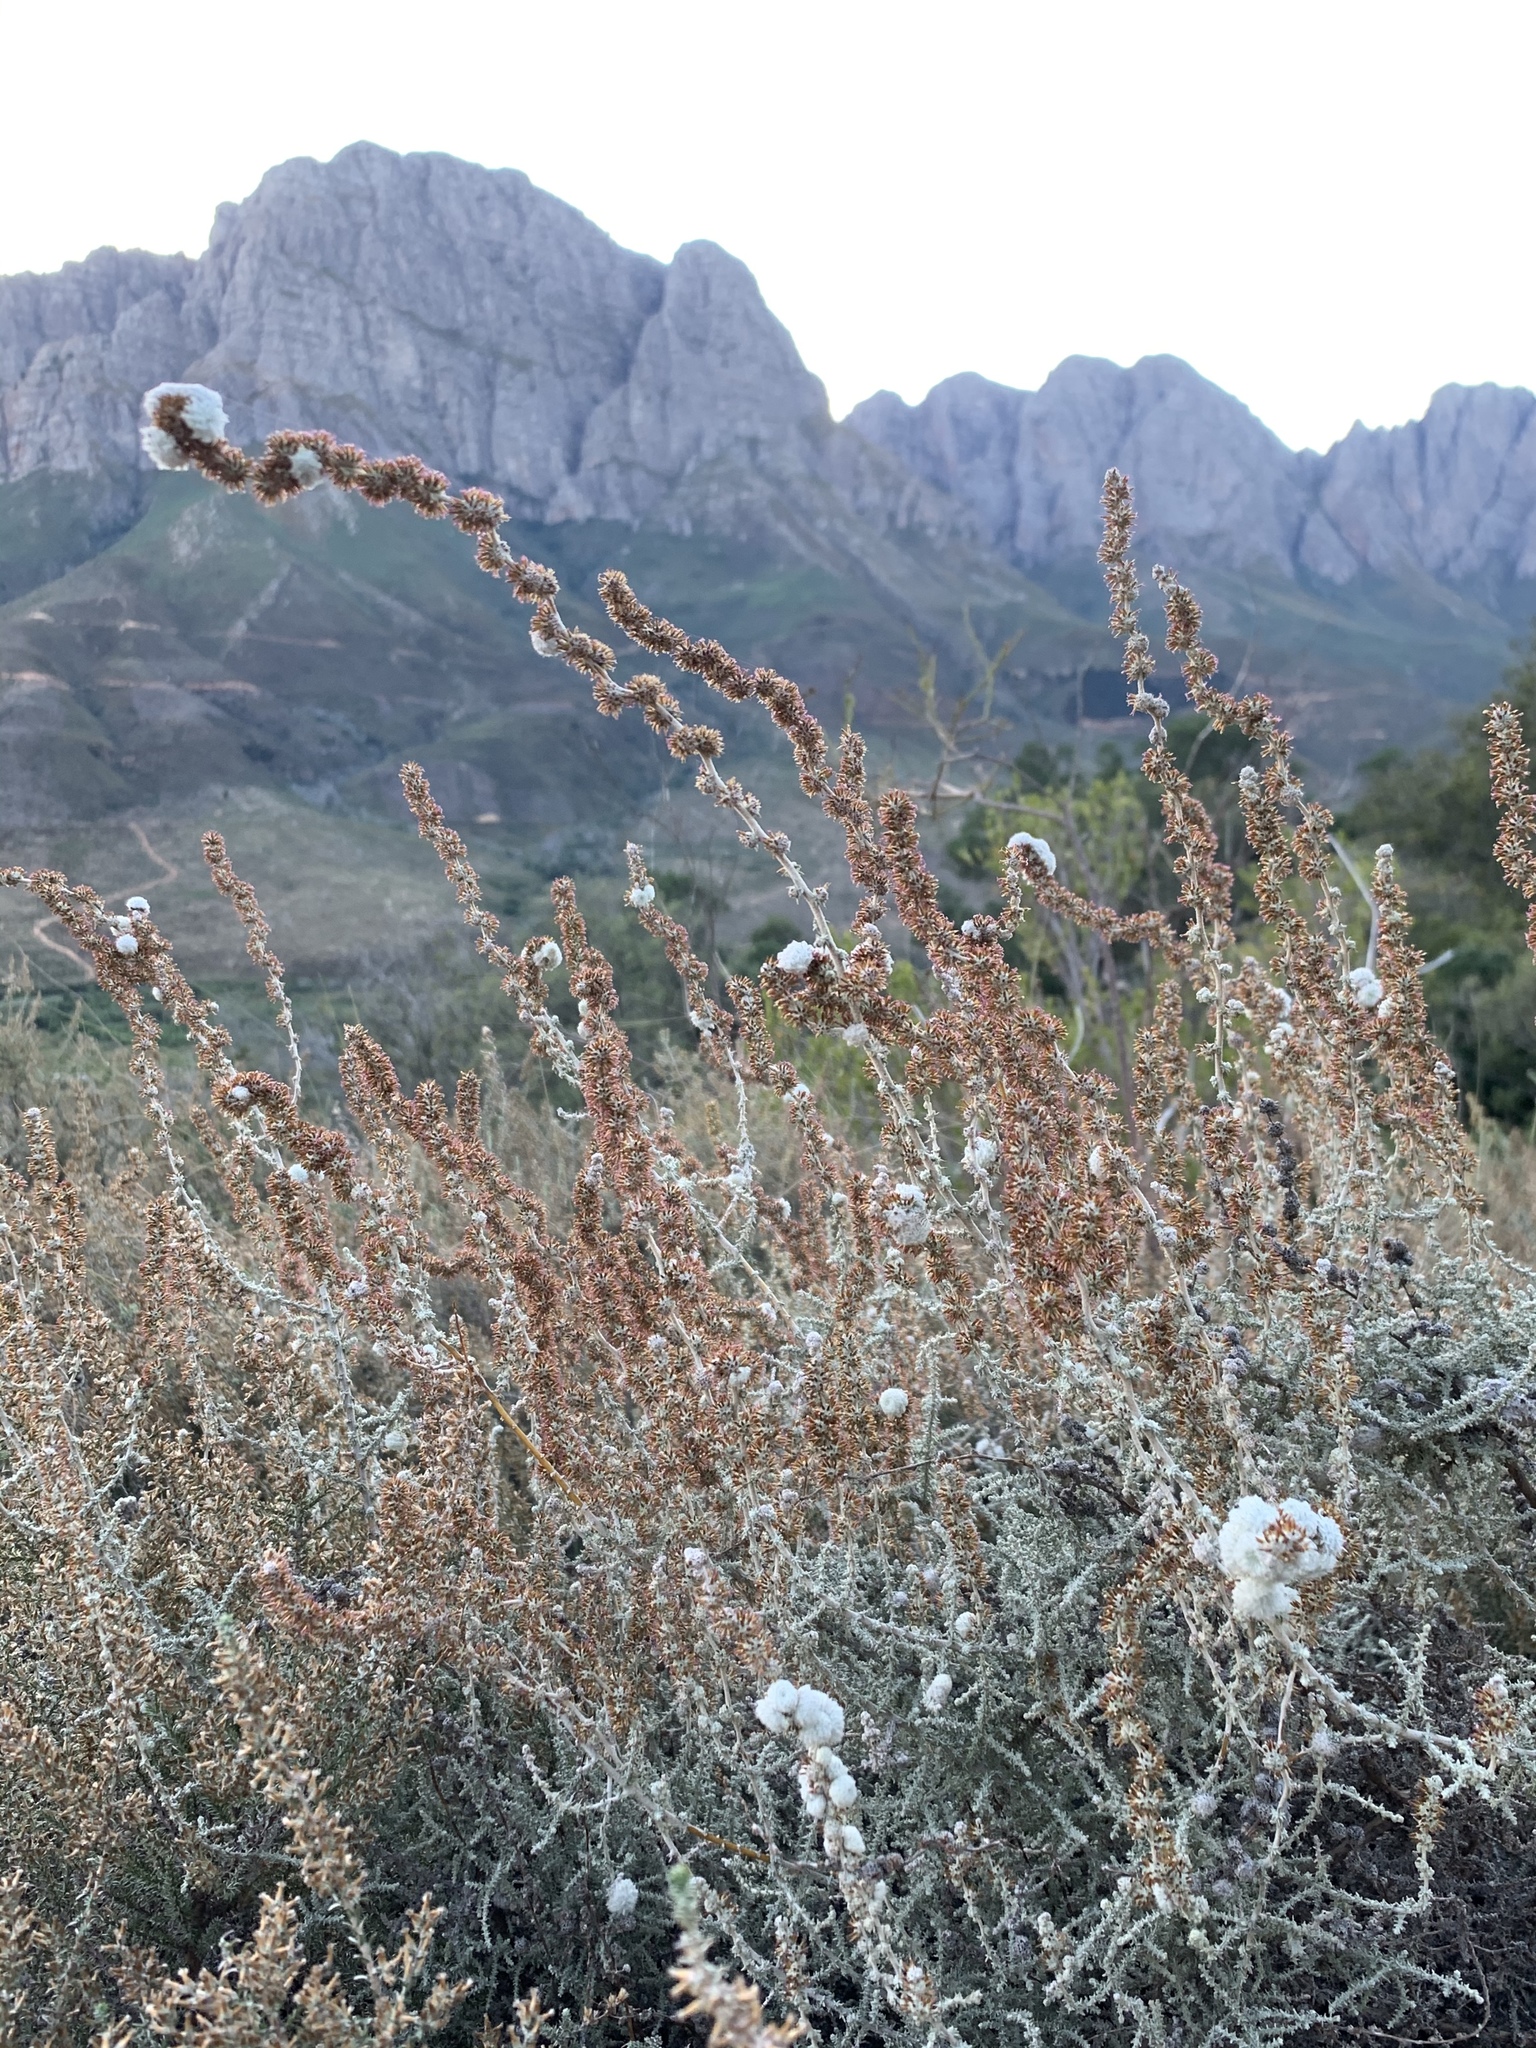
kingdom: Plantae
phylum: Tracheophyta
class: Magnoliopsida
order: Asterales
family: Asteraceae
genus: Seriphium
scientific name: Seriphium plumosum
